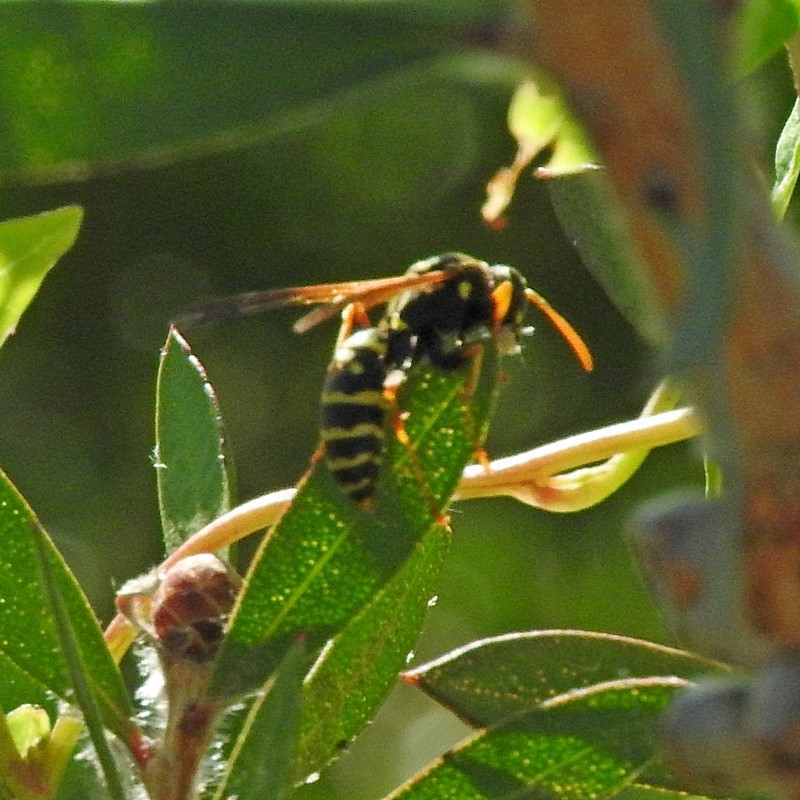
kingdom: Animalia
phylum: Arthropoda
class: Insecta
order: Hymenoptera
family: Eumenidae
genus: Polistes
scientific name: Polistes chinensis
